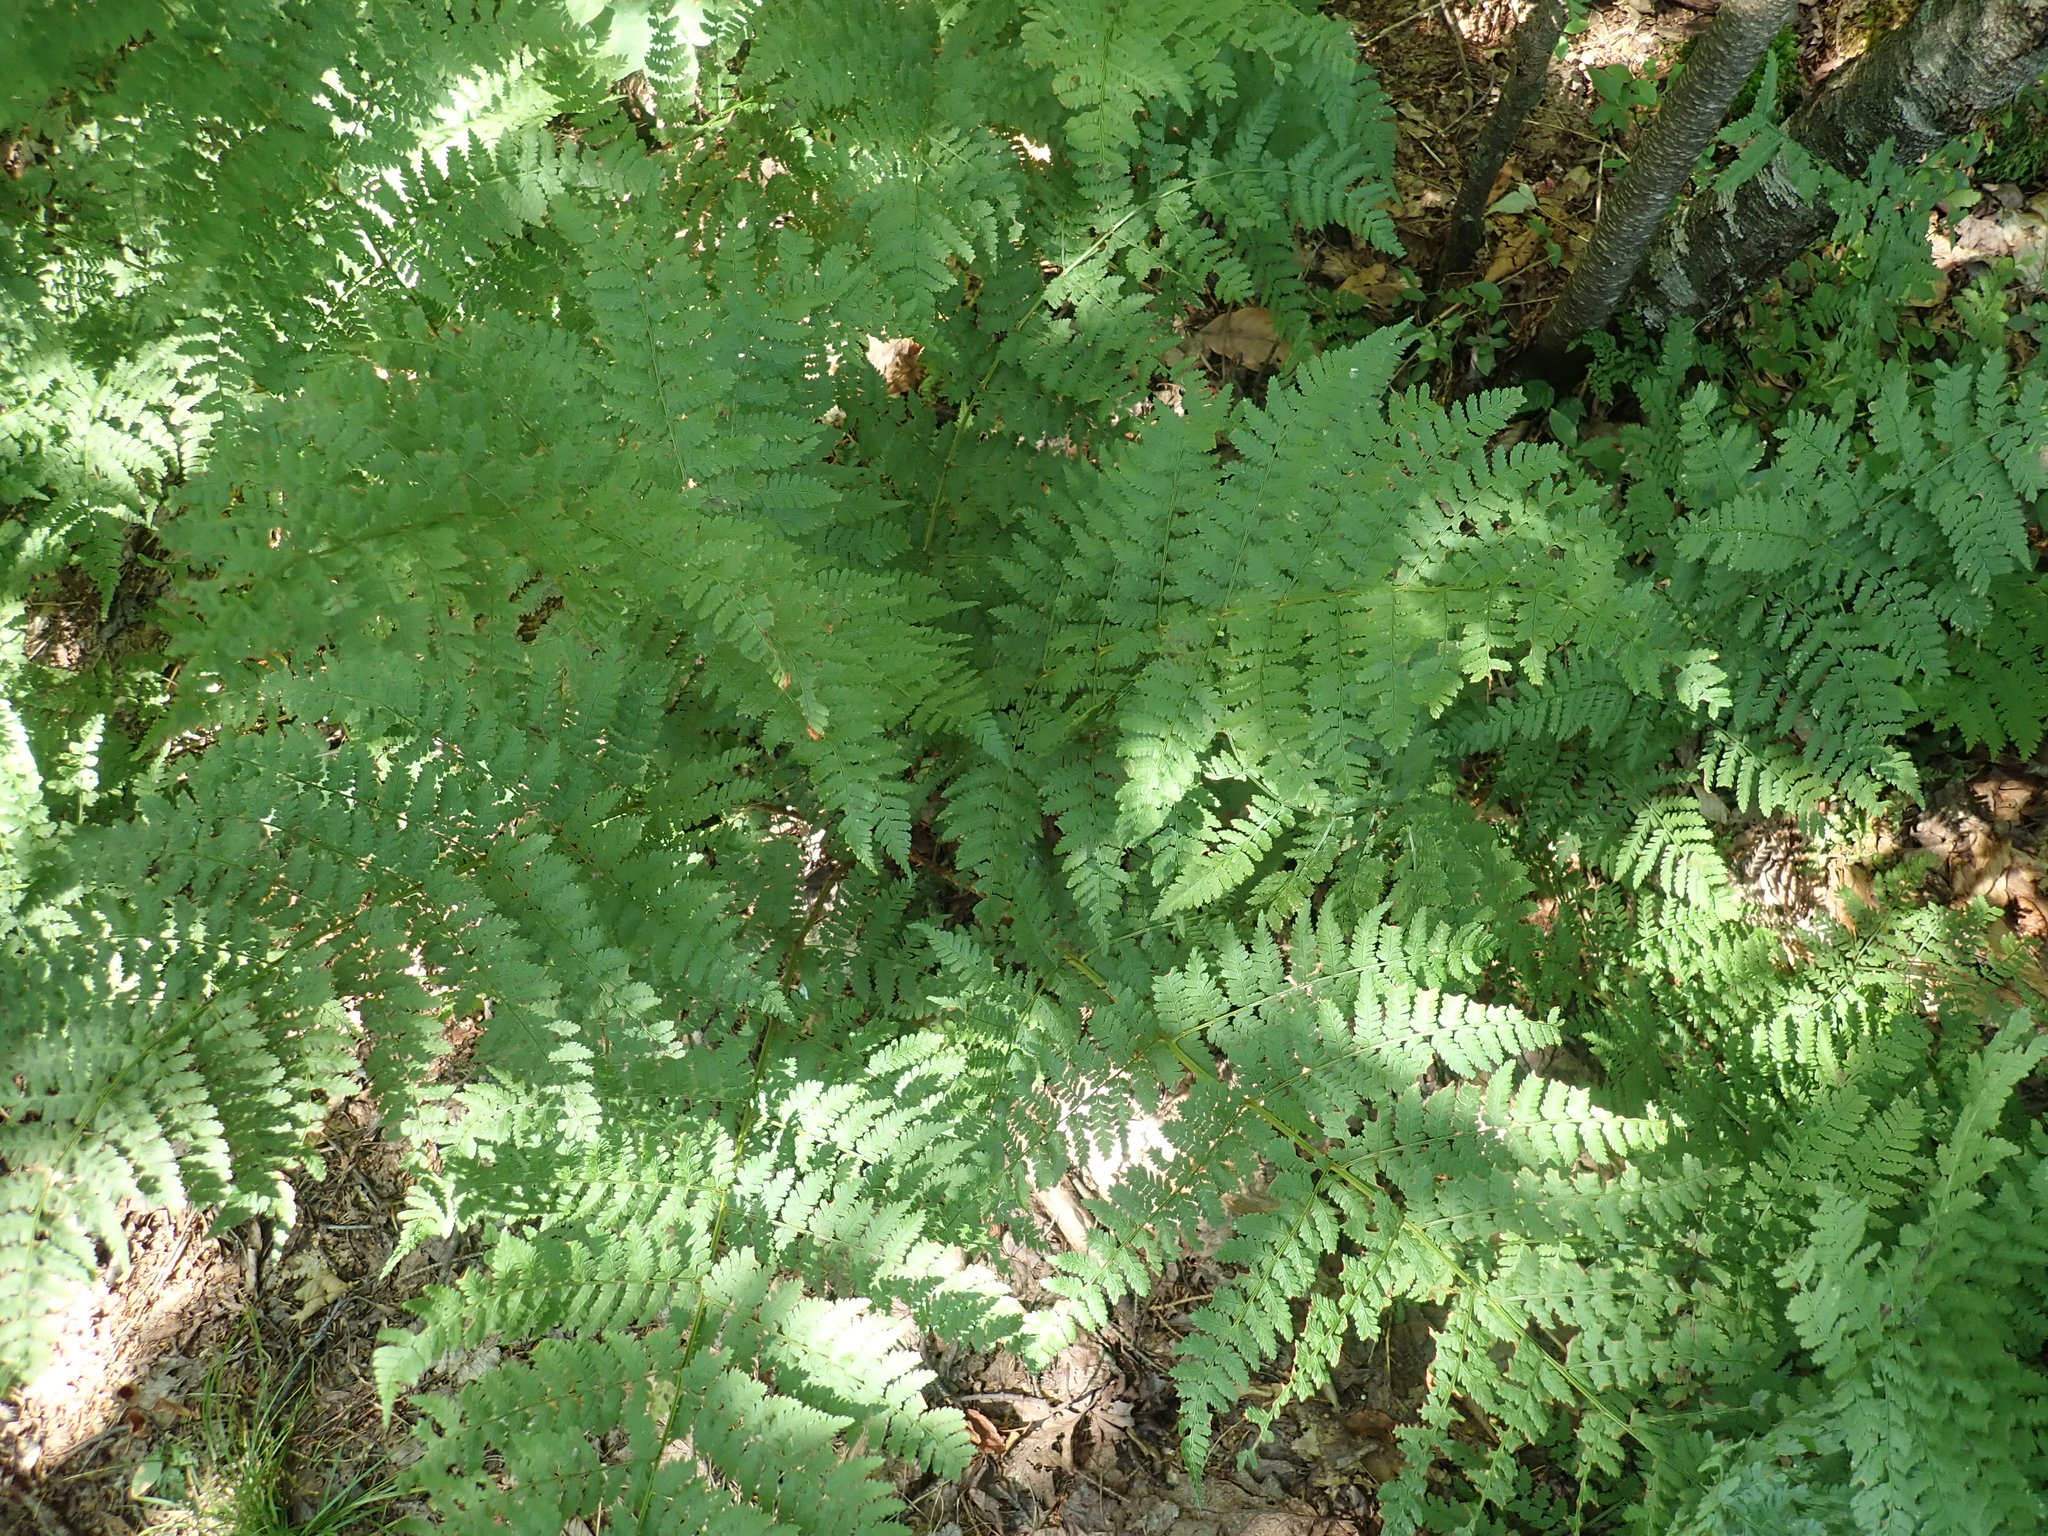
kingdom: Plantae
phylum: Tracheophyta
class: Polypodiopsida
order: Polypodiales
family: Dryopteridaceae
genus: Dryopteris
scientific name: Dryopteris campyloptera
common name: Mountain wood fern
